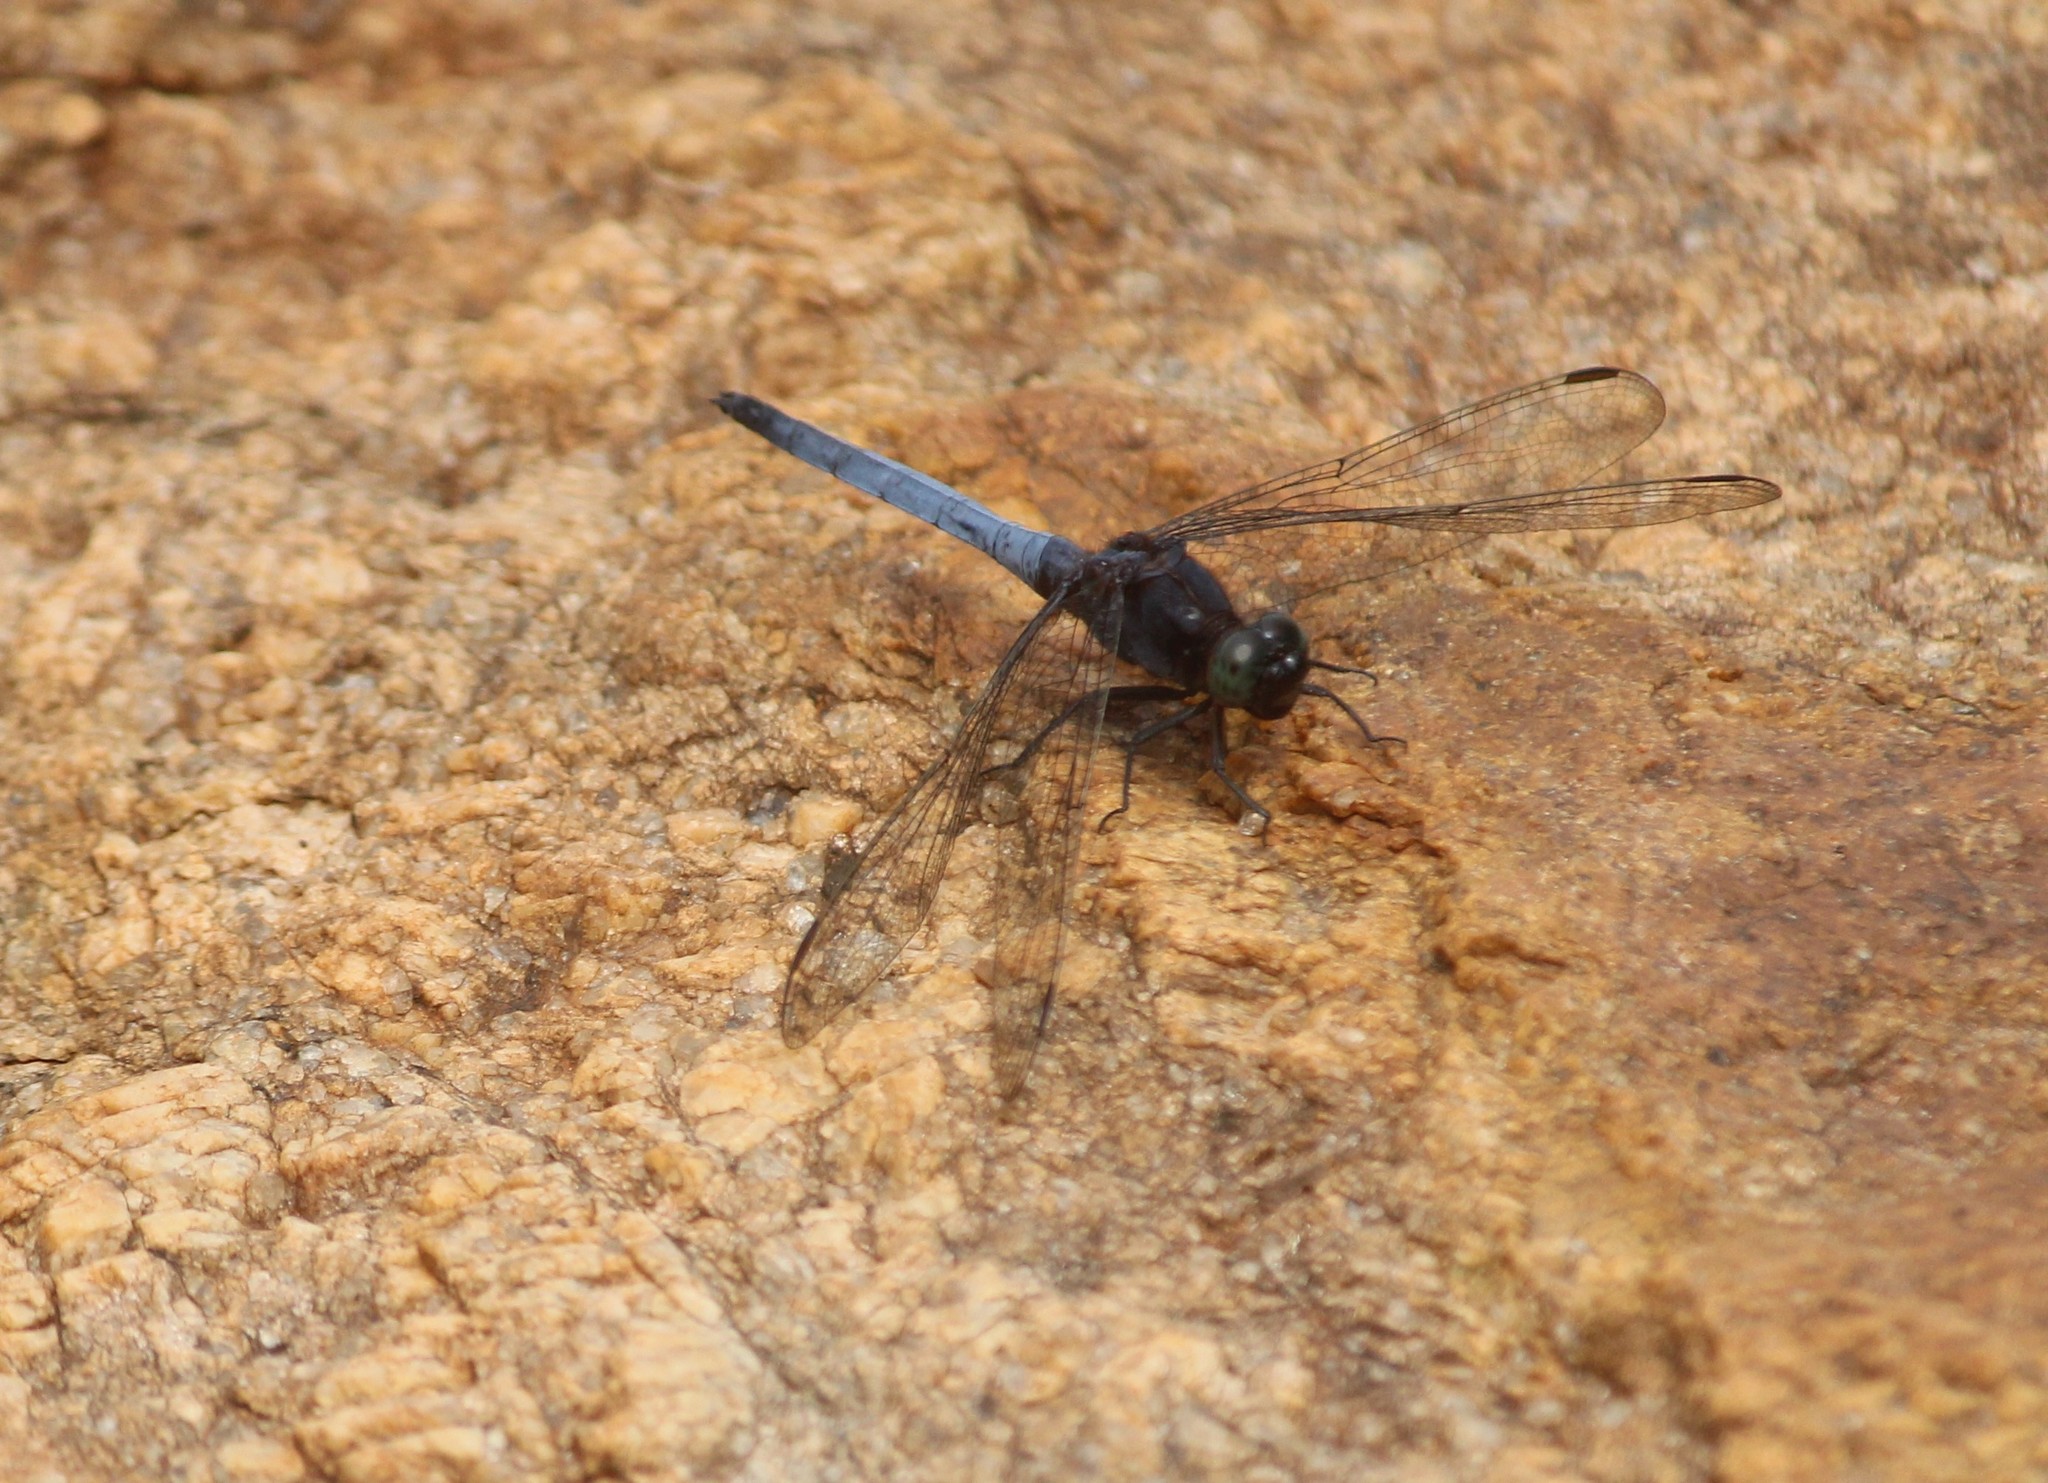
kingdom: Animalia
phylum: Arthropoda
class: Insecta
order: Odonata
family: Libellulidae
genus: Orthetrum
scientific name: Orthetrum glaucum
